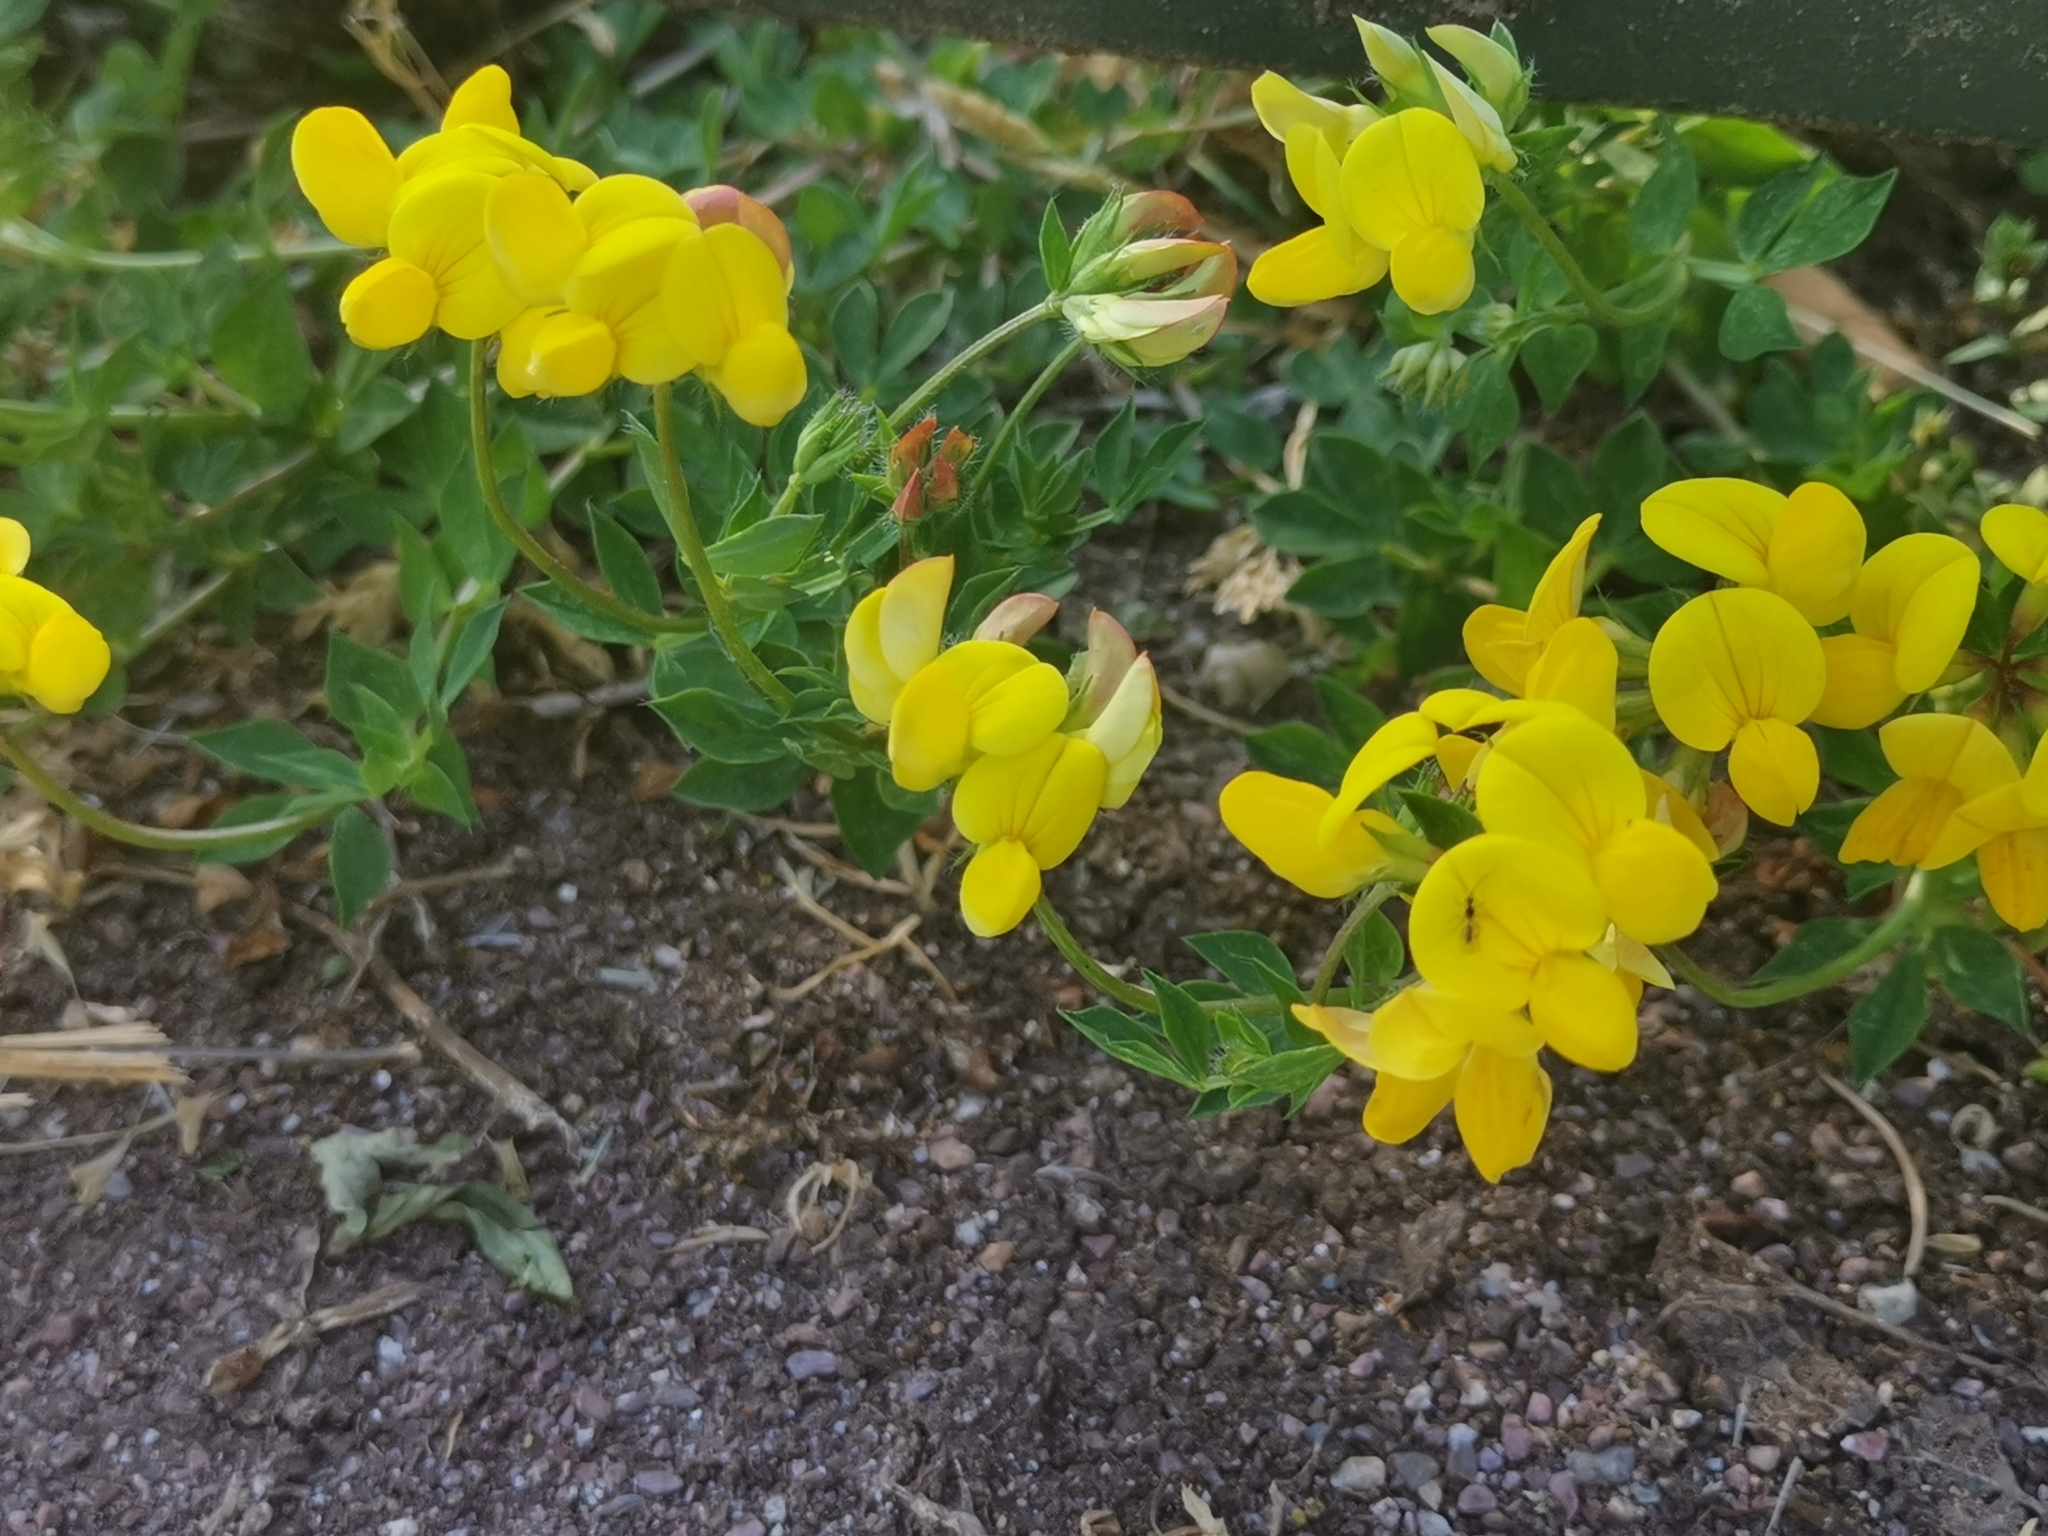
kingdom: Plantae
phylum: Tracheophyta
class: Magnoliopsida
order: Fabales
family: Fabaceae
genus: Lotus
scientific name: Lotus corniculatus
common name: Common bird's-foot-trefoil
